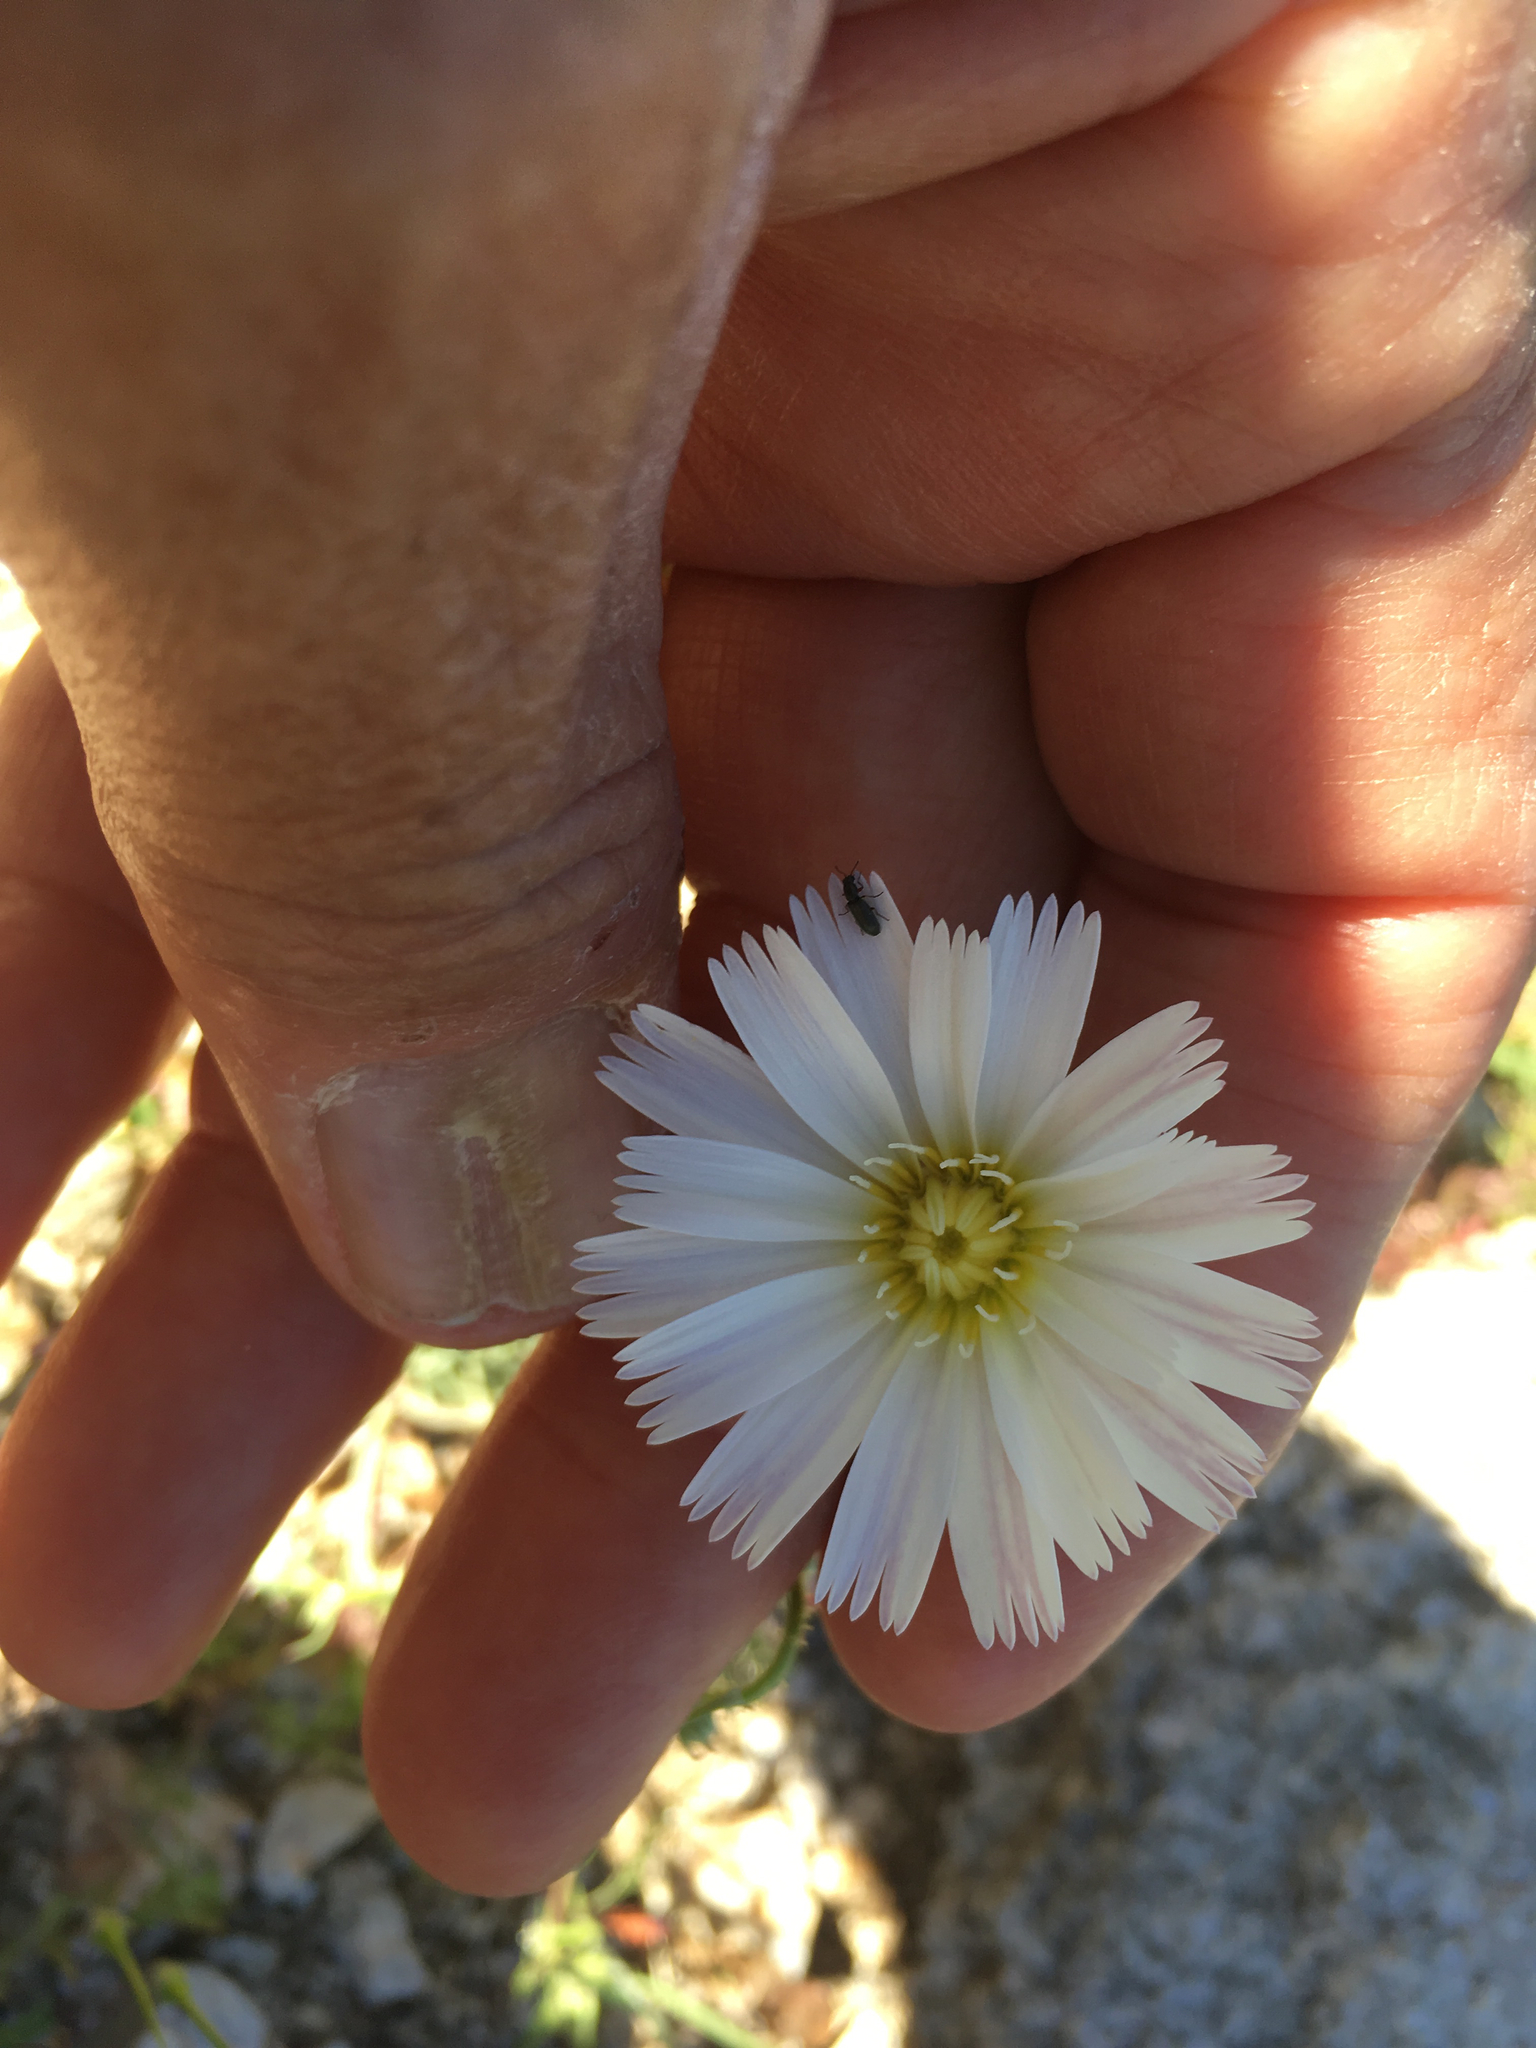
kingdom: Plantae
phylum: Tracheophyta
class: Magnoliopsida
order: Asterales
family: Asteraceae
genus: Rafinesquia
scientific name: Rafinesquia neomexicana
